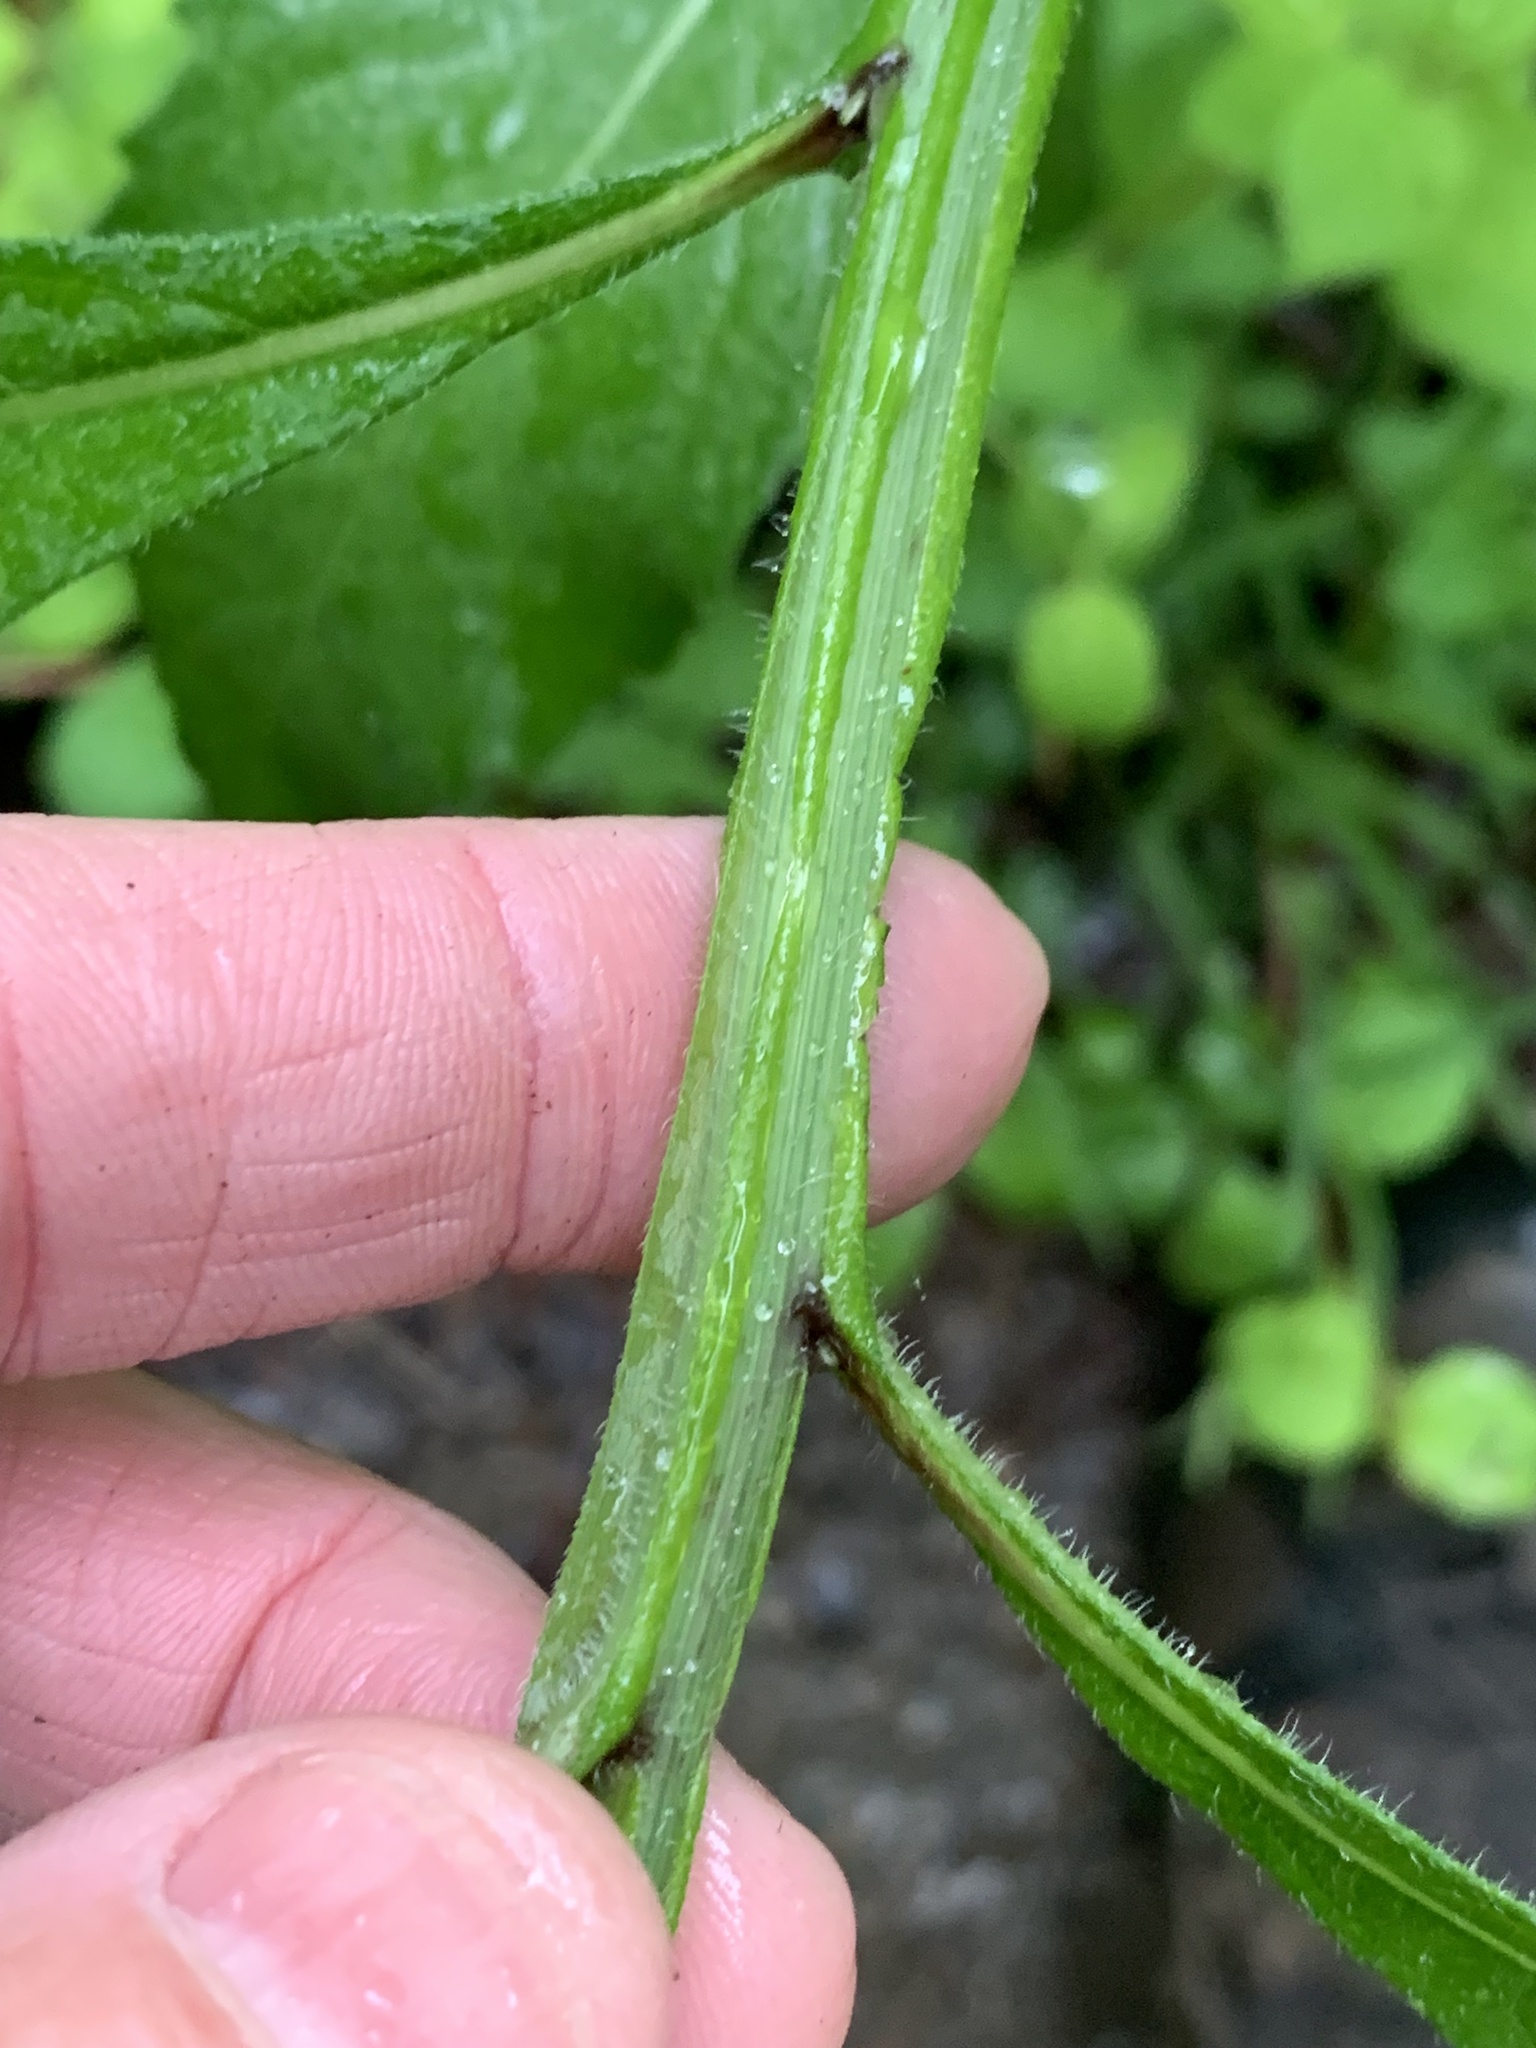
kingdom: Plantae
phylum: Tracheophyta
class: Magnoliopsida
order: Asterales
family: Asteraceae
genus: Verbesina
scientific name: Verbesina alternifolia
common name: Wingstem
